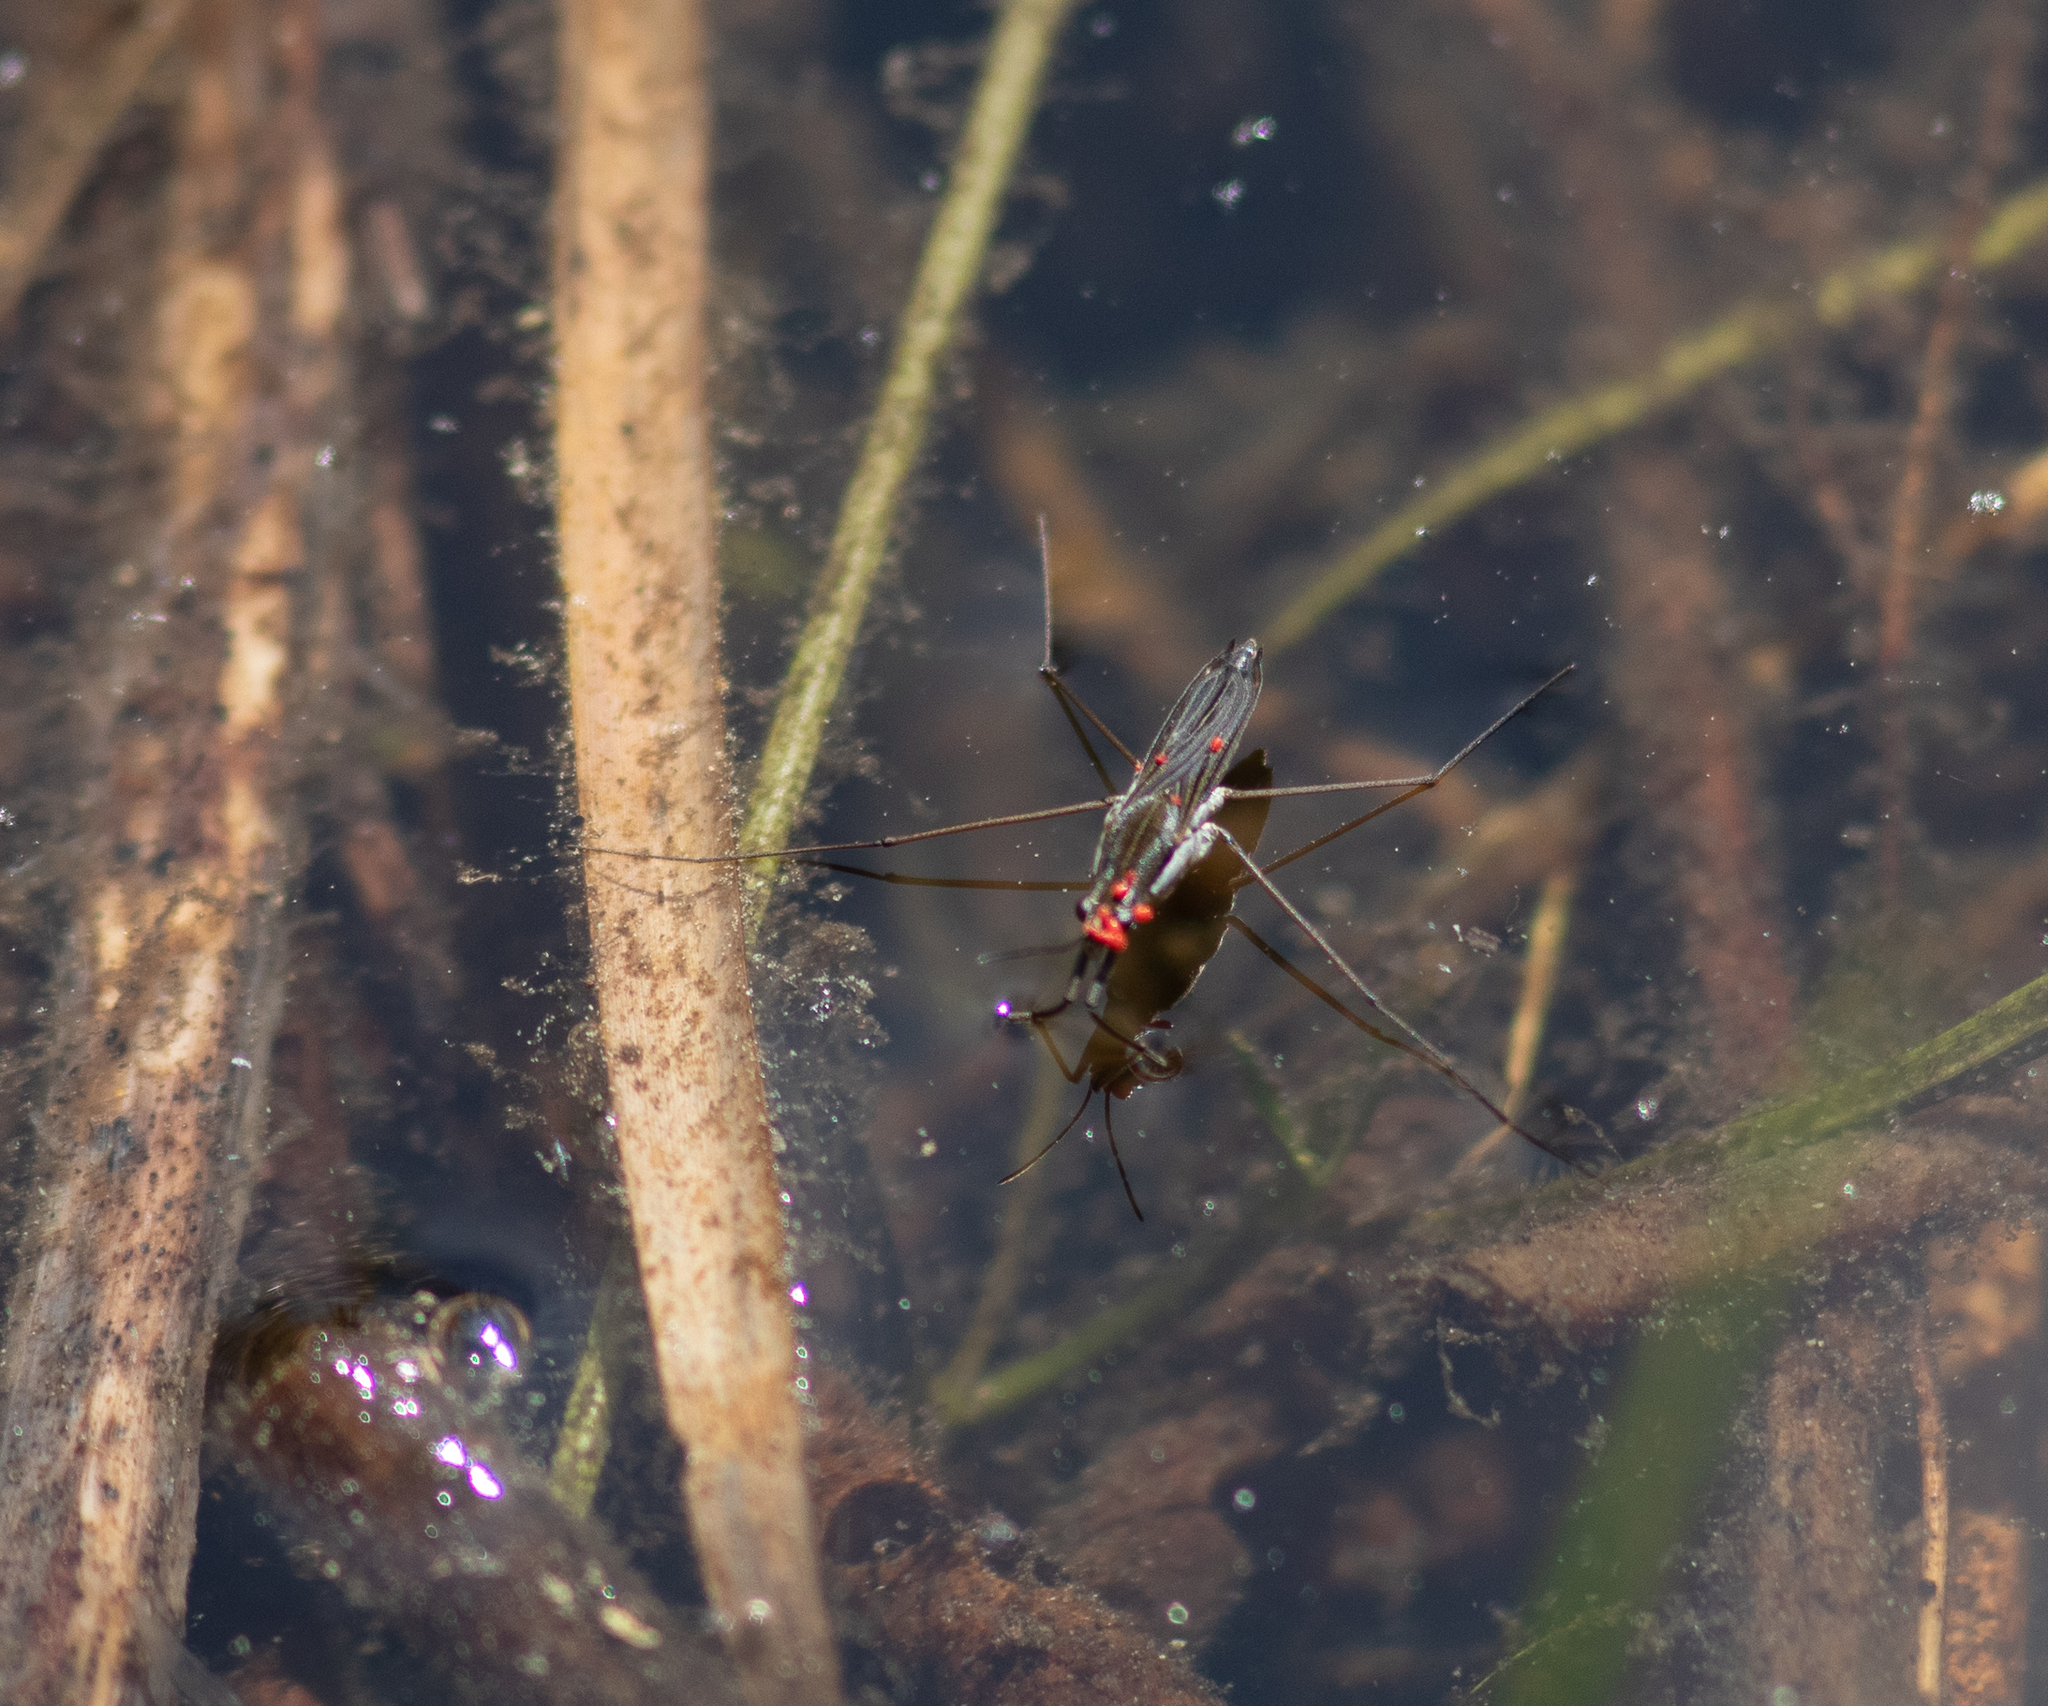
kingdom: Animalia
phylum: Arthropoda
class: Insecta
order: Hemiptera
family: Gerridae
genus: Gerris
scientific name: Gerris
